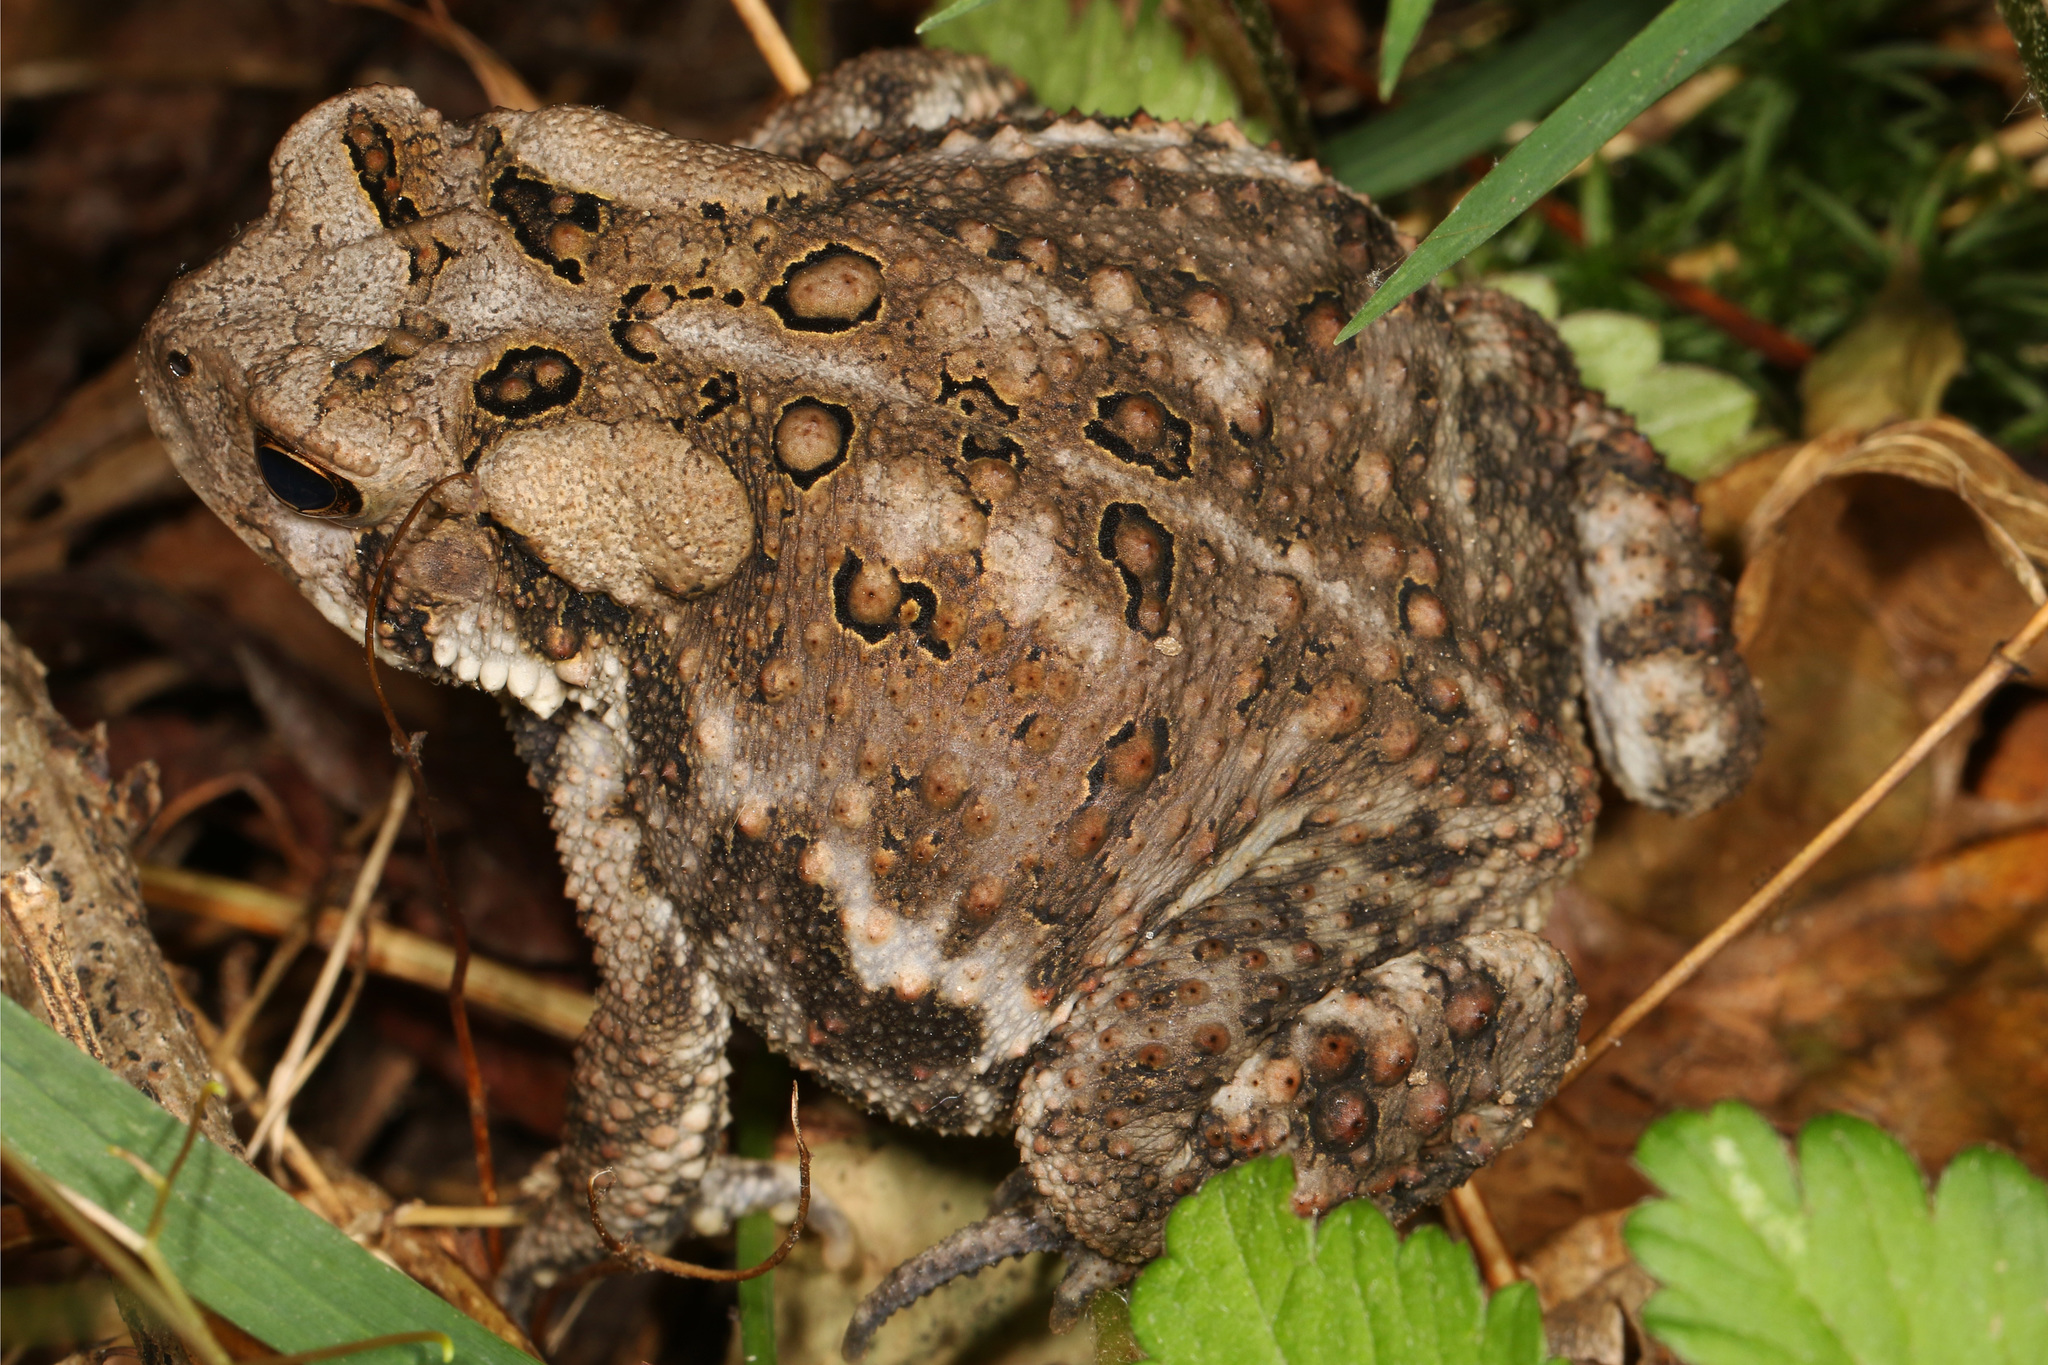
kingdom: Animalia
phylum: Chordata
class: Amphibia
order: Anura
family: Bufonidae
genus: Anaxyrus
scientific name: Anaxyrus americanus
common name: American toad
